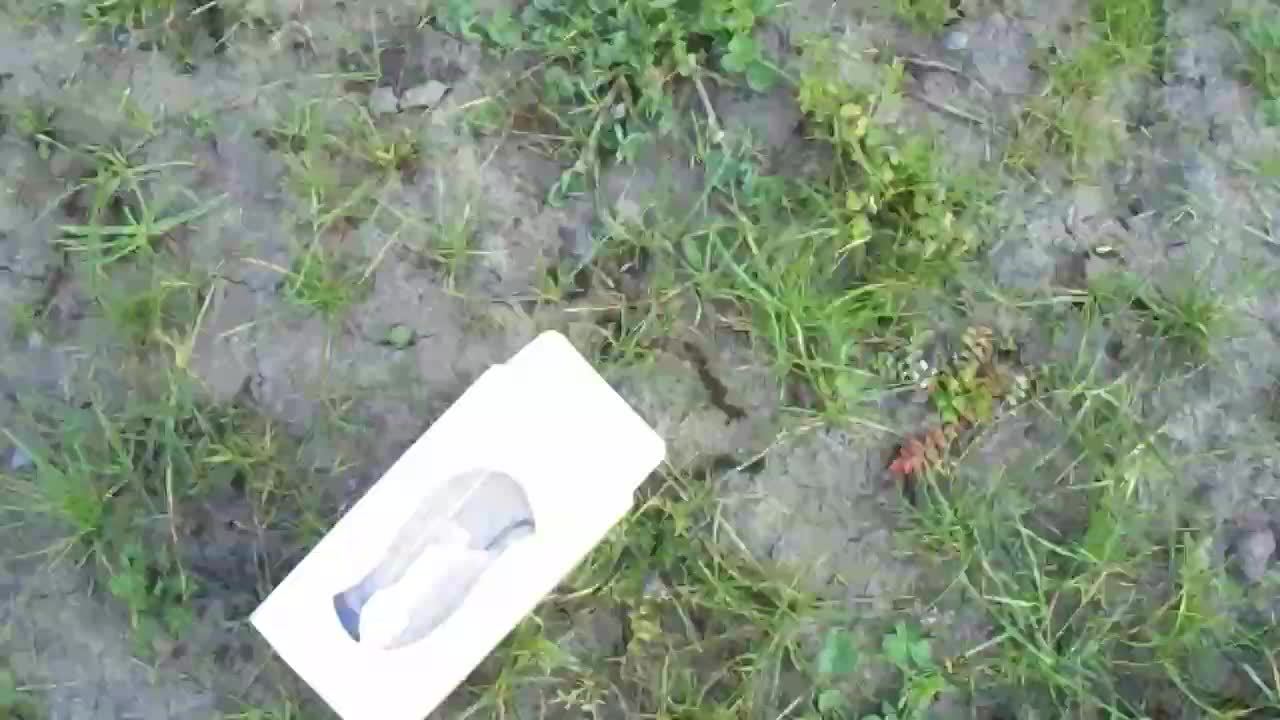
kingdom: Animalia
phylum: Chordata
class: Mammalia
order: Rodentia
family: Muridae
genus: Rattus
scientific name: Rattus rattus
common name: Black rat
